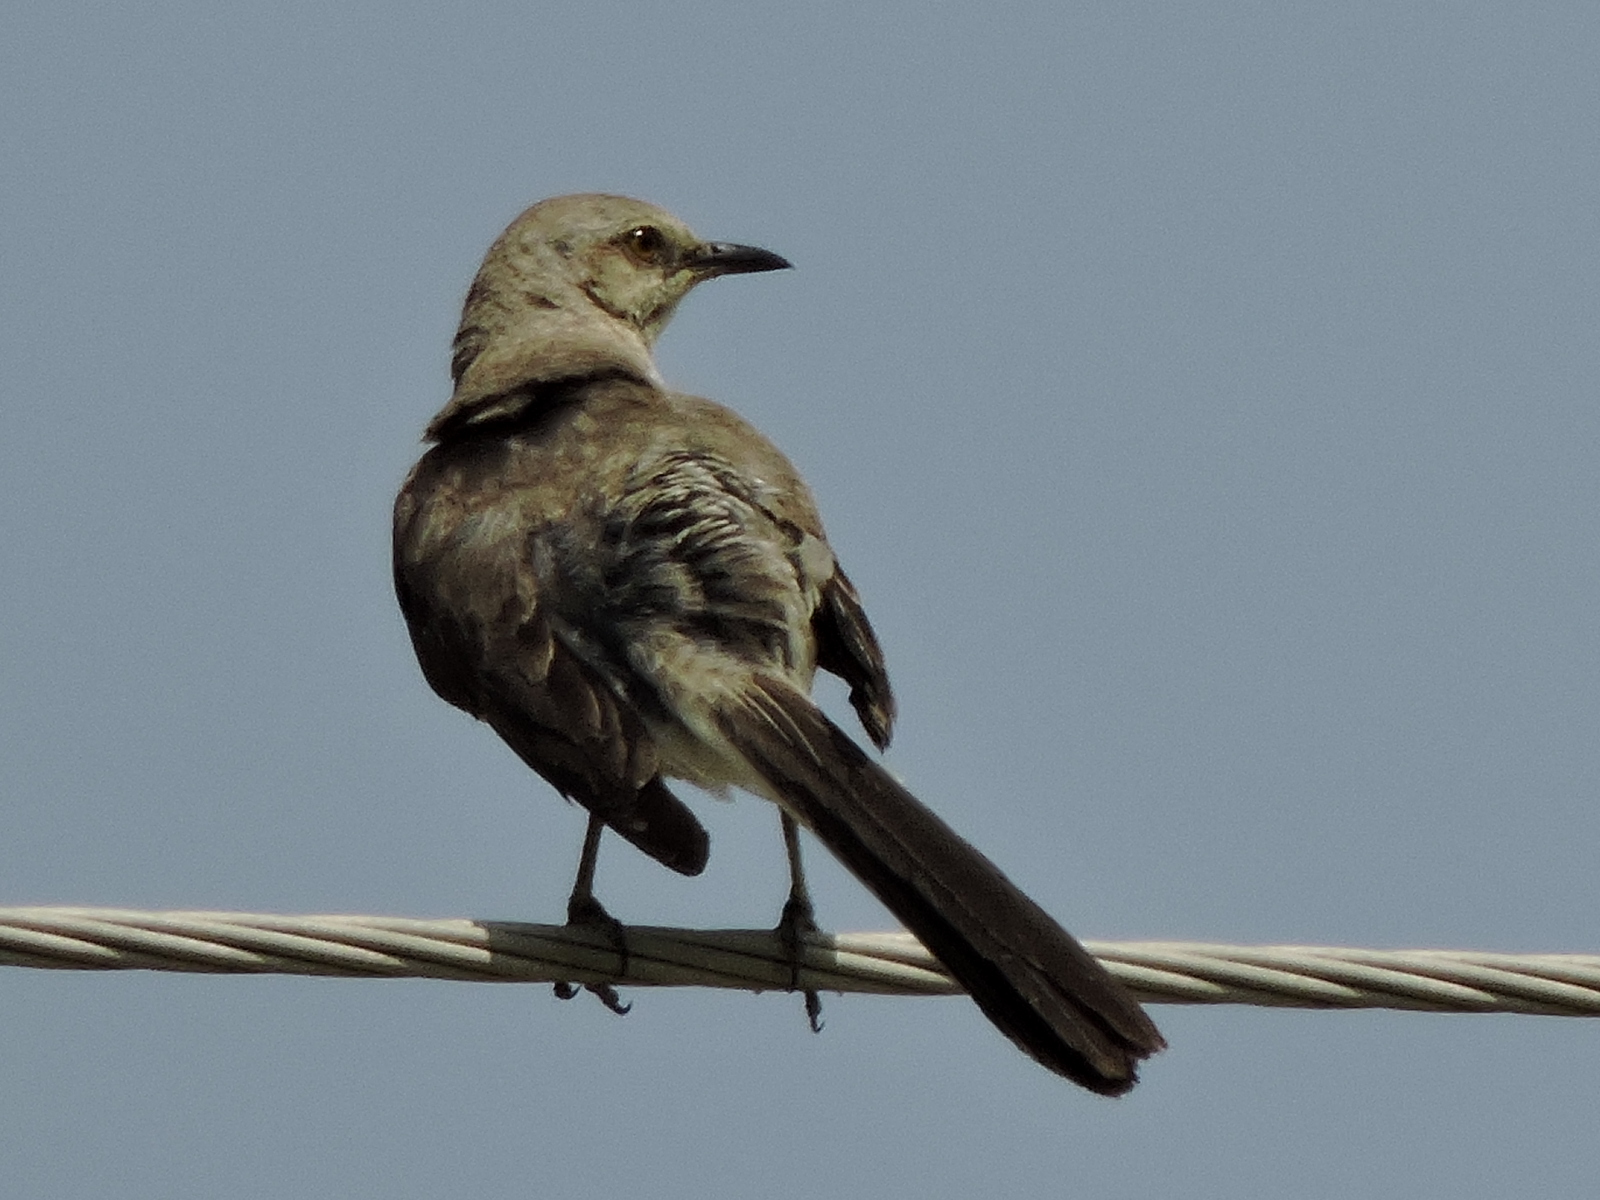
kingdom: Animalia
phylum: Chordata
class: Aves
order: Passeriformes
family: Mimidae
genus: Mimus
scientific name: Mimus polyglottos
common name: Northern mockingbird
